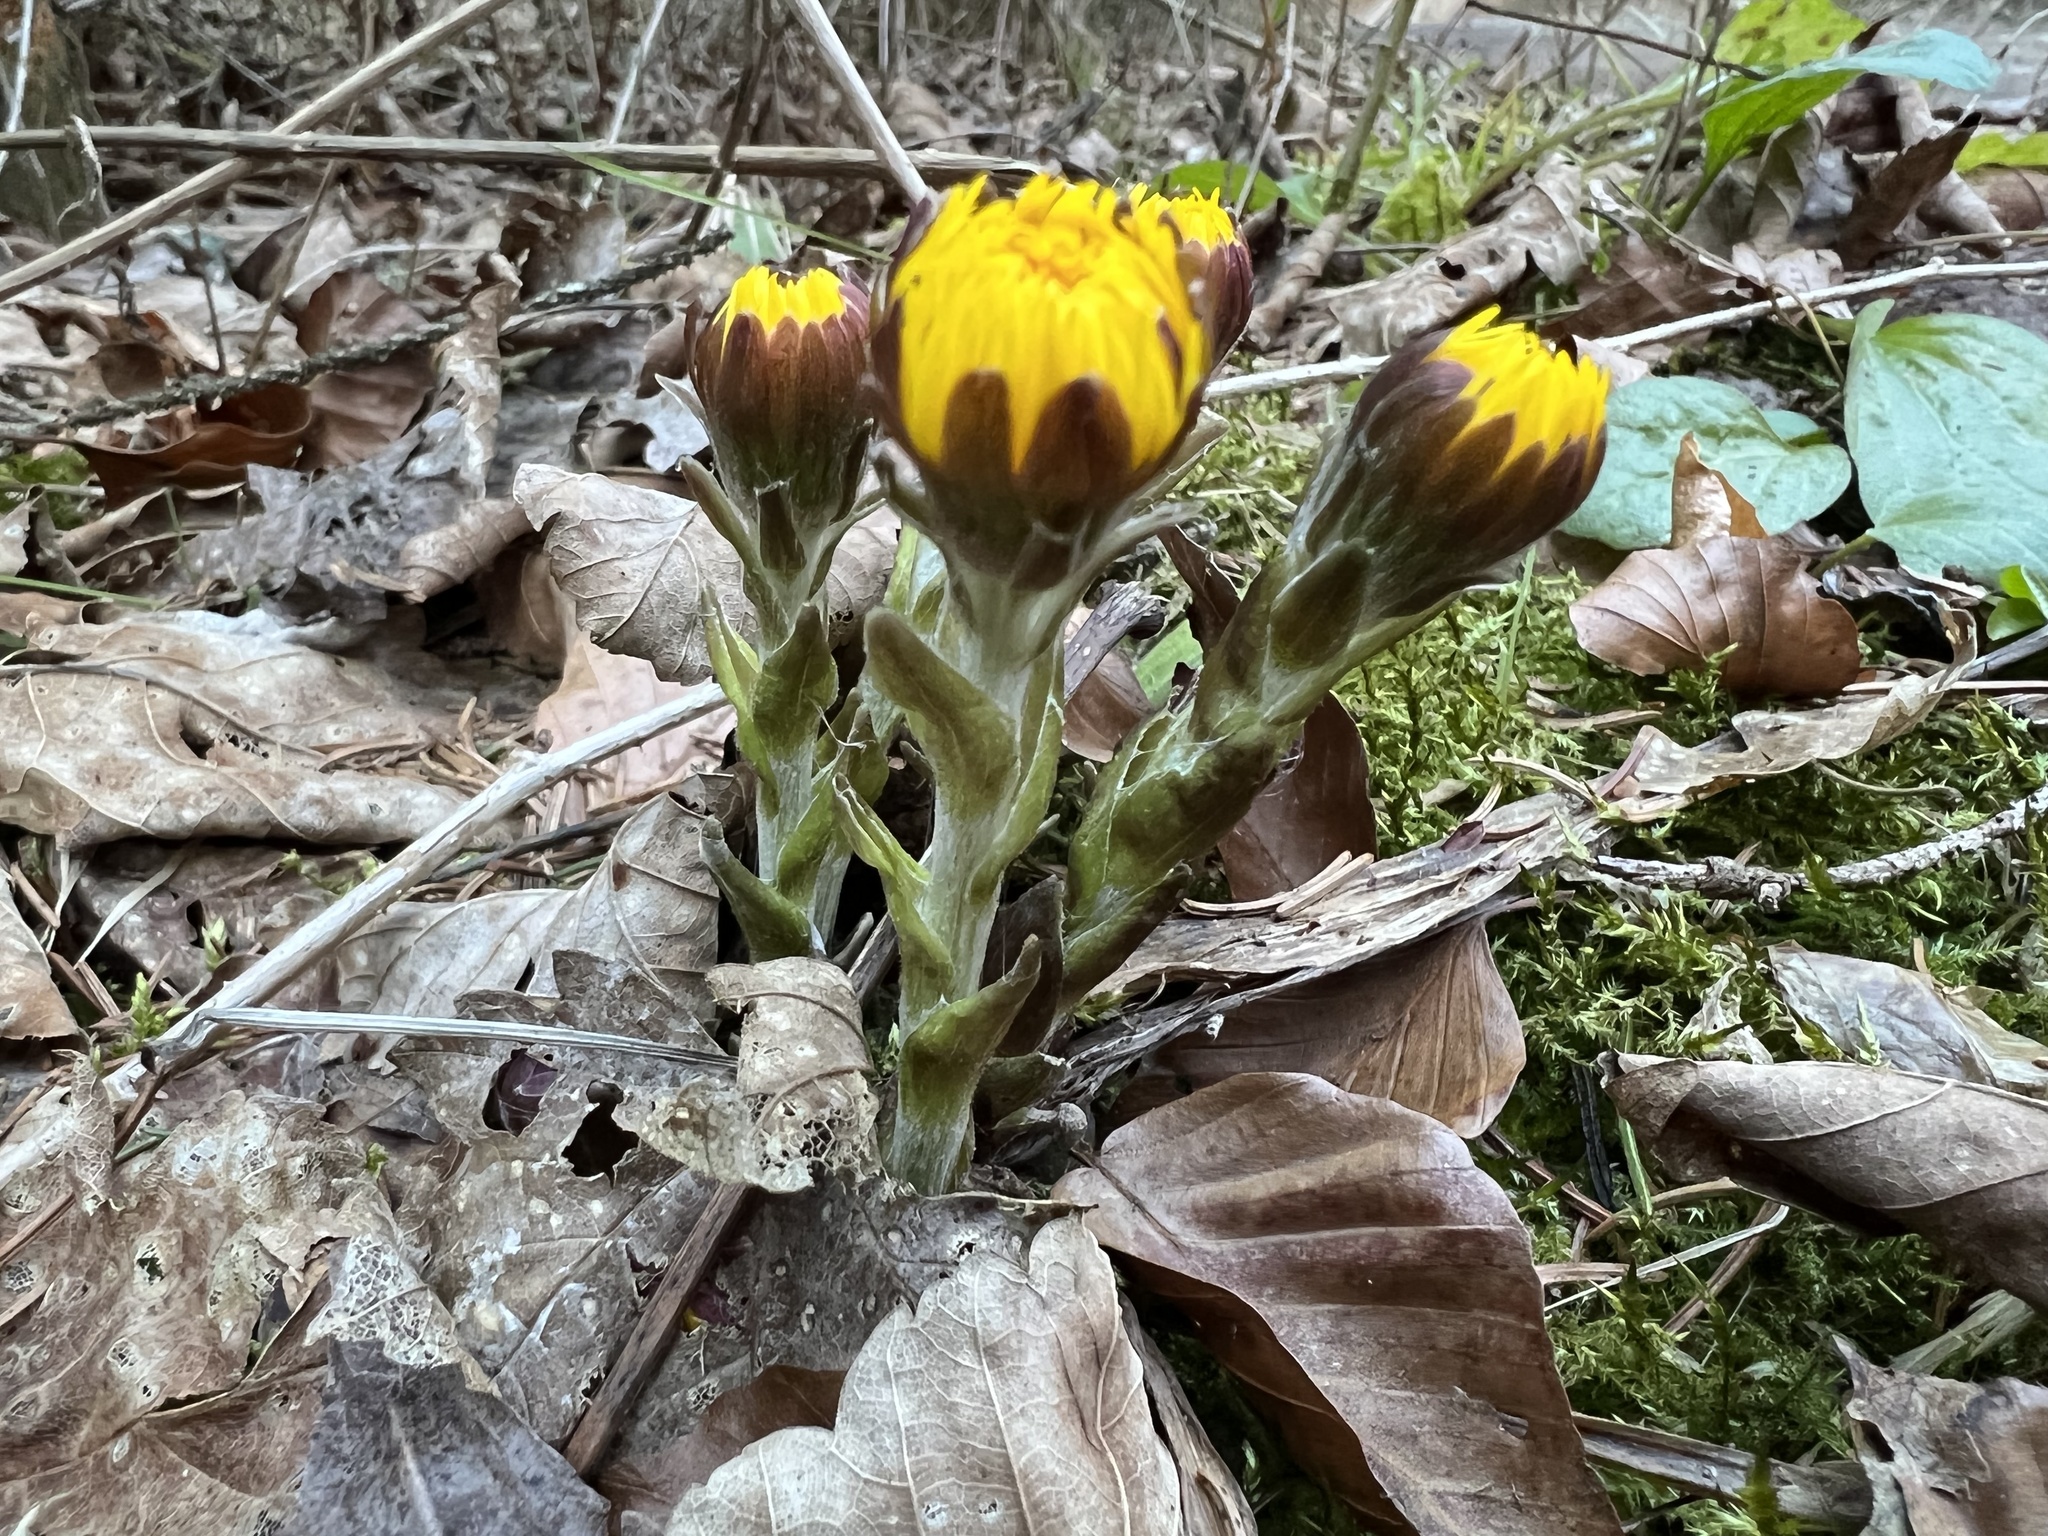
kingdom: Plantae
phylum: Tracheophyta
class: Magnoliopsida
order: Asterales
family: Asteraceae
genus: Tussilago
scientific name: Tussilago farfara
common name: Coltsfoot
